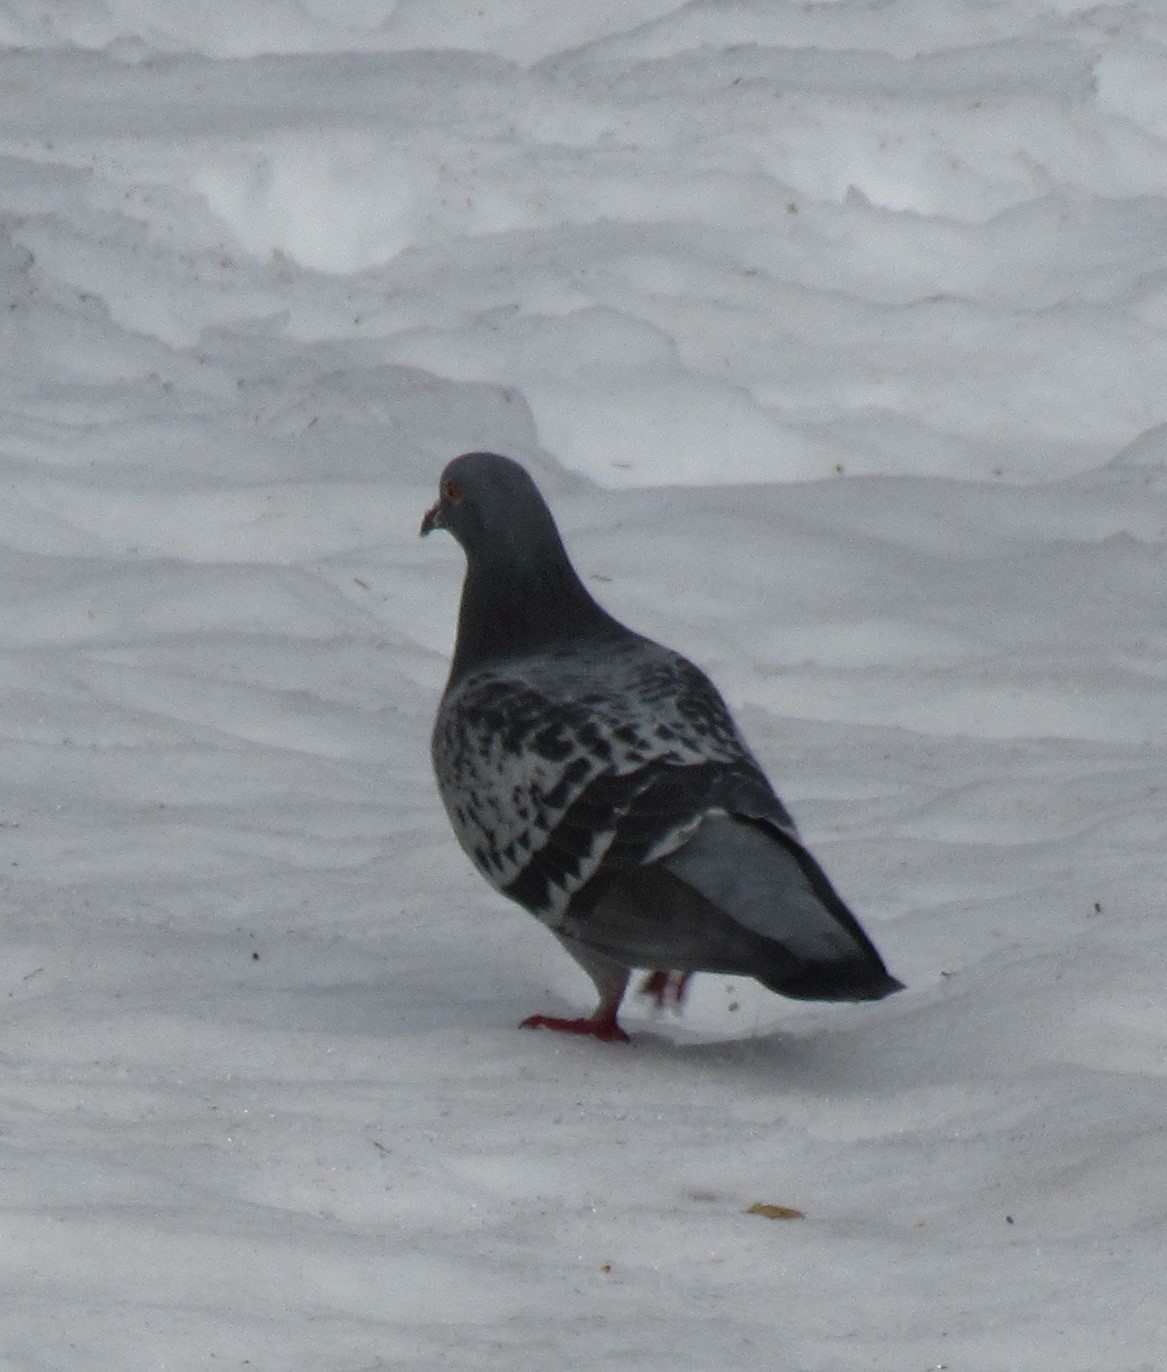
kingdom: Animalia
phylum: Chordata
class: Aves
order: Columbiformes
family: Columbidae
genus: Columba
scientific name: Columba livia
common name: Rock pigeon
